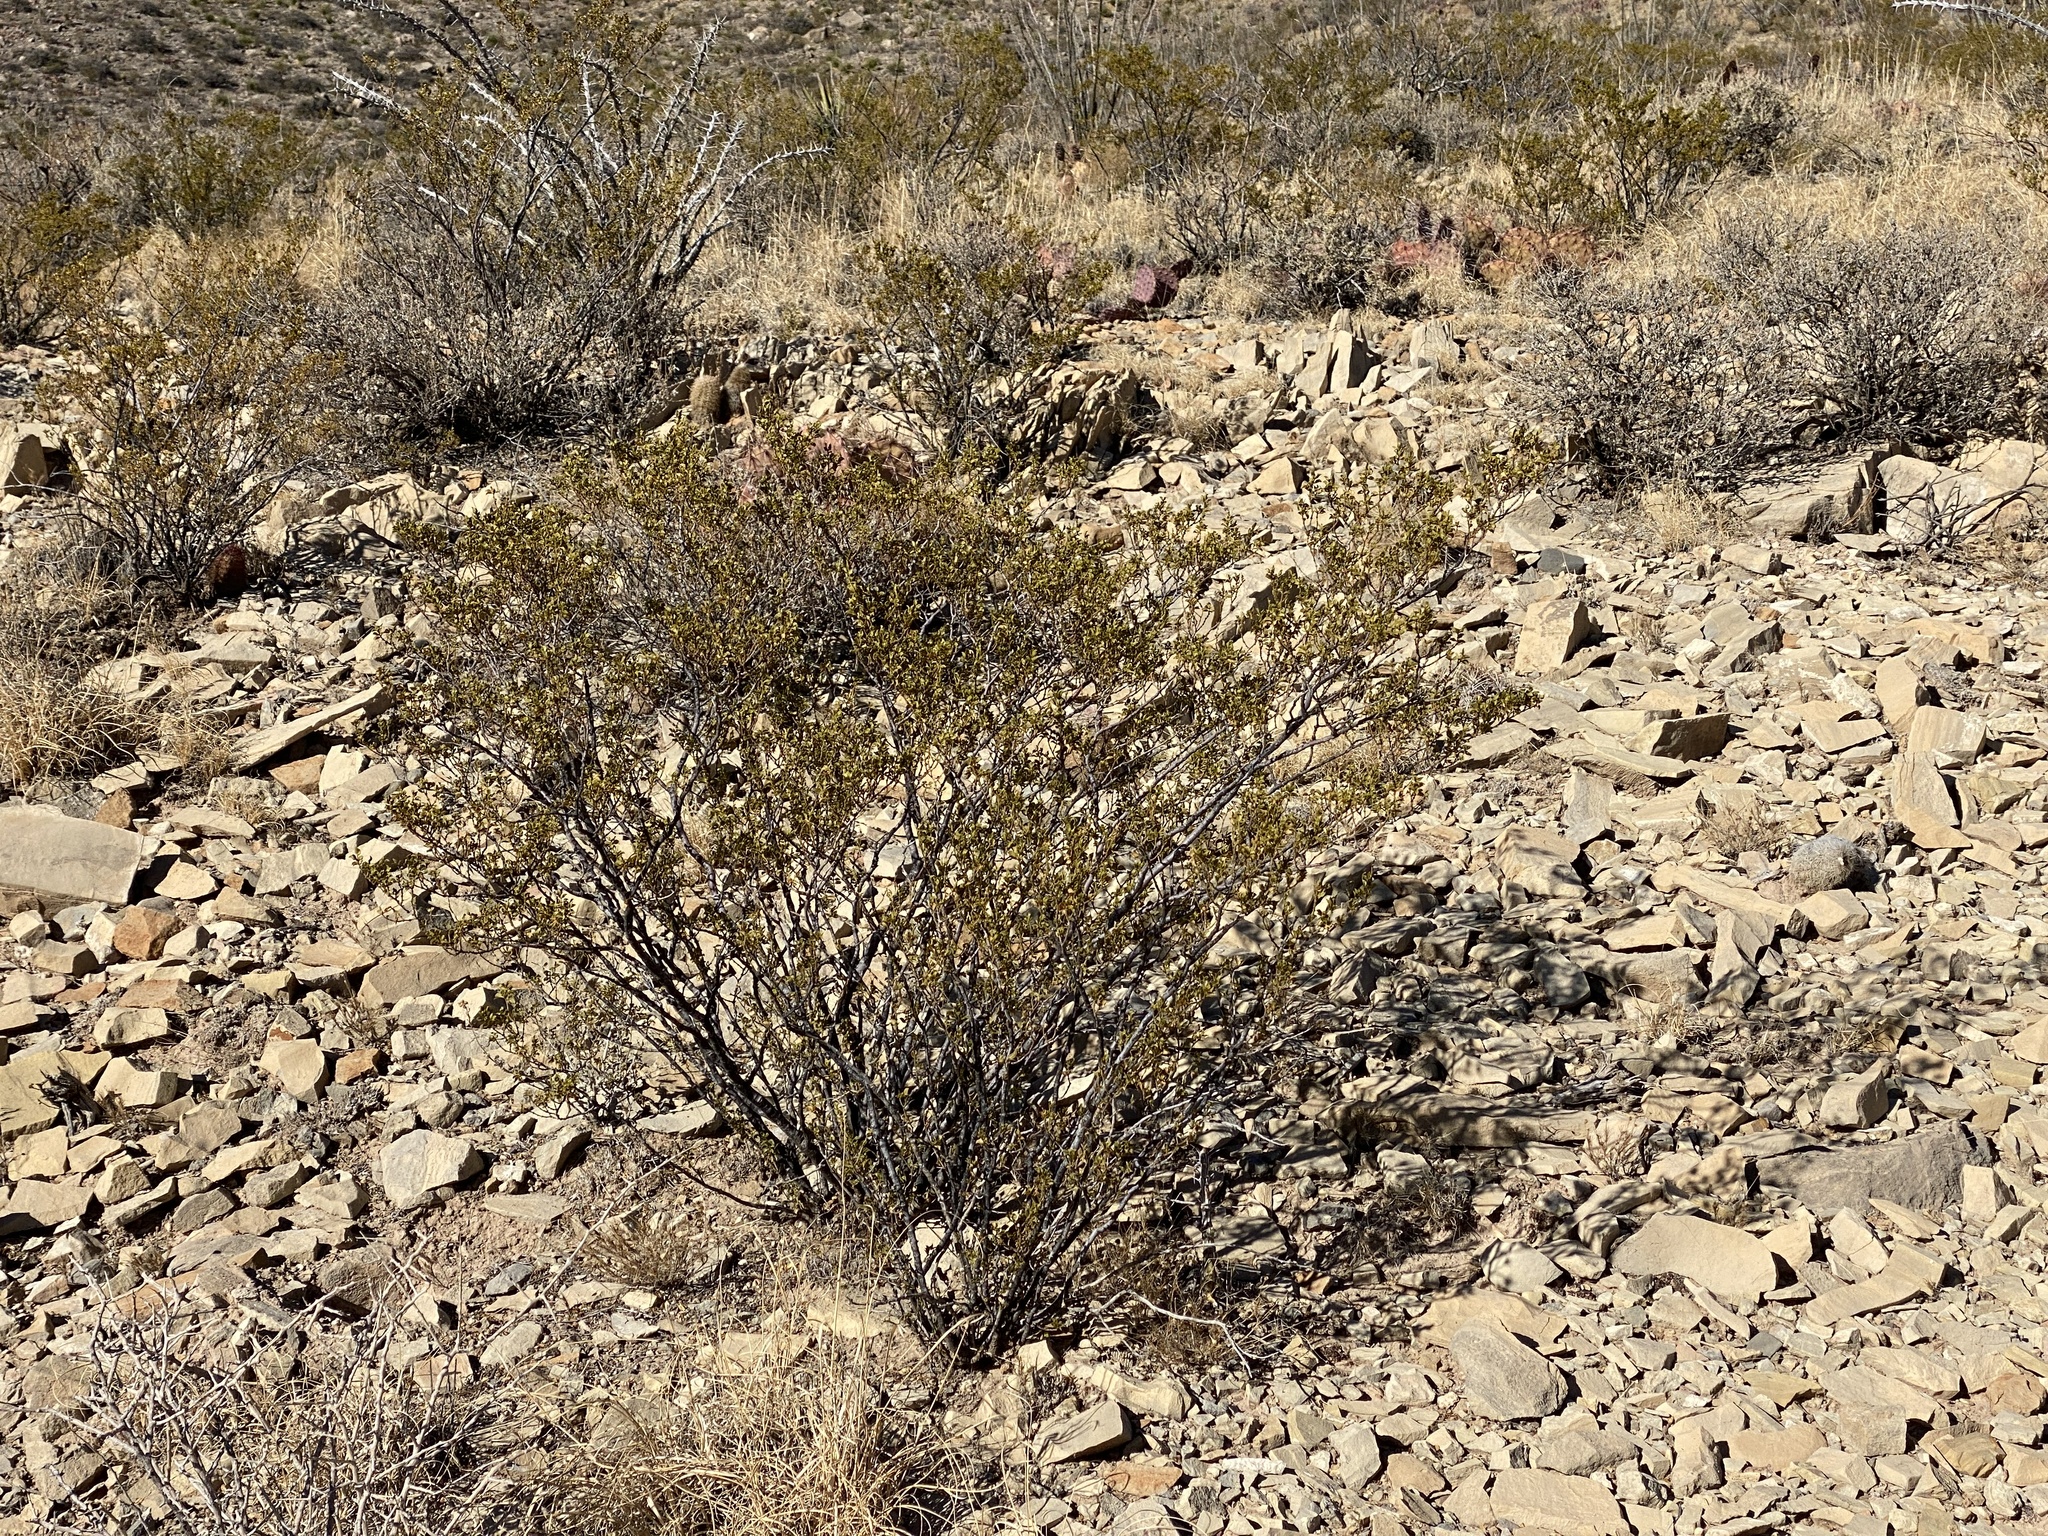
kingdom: Plantae
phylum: Tracheophyta
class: Magnoliopsida
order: Zygophyllales
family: Zygophyllaceae
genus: Larrea
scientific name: Larrea tridentata
